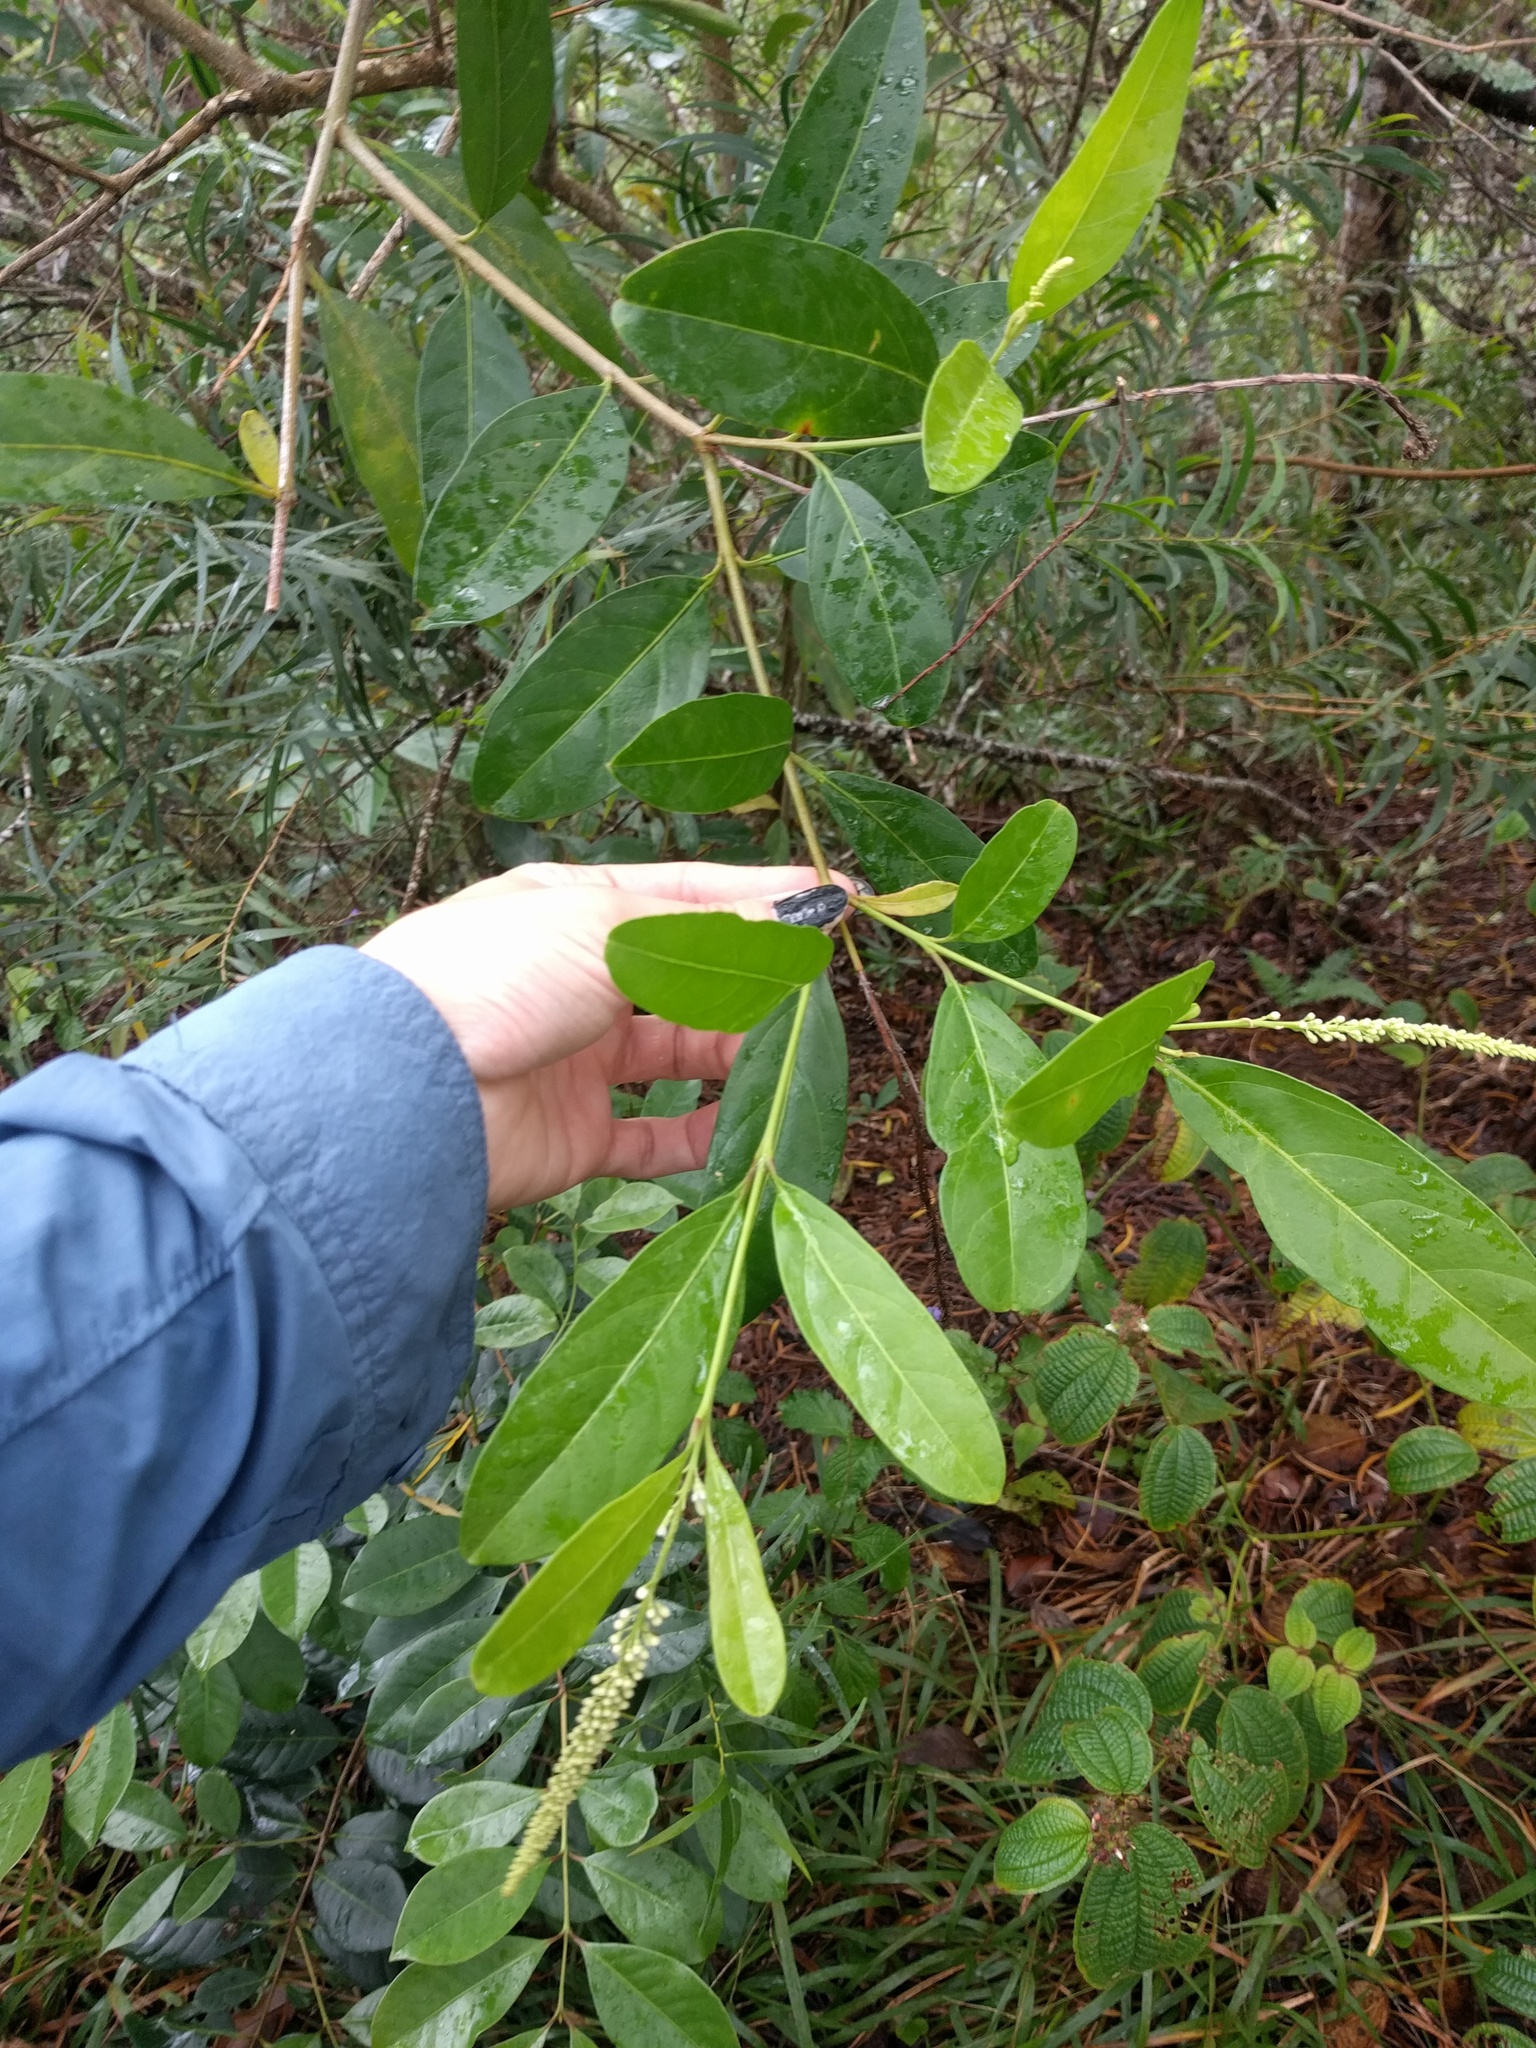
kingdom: Plantae
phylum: Tracheophyta
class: Magnoliopsida
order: Lamiales
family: Verbenaceae
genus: Citharexylum
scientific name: Citharexylum caudatum
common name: Fiddlewood
